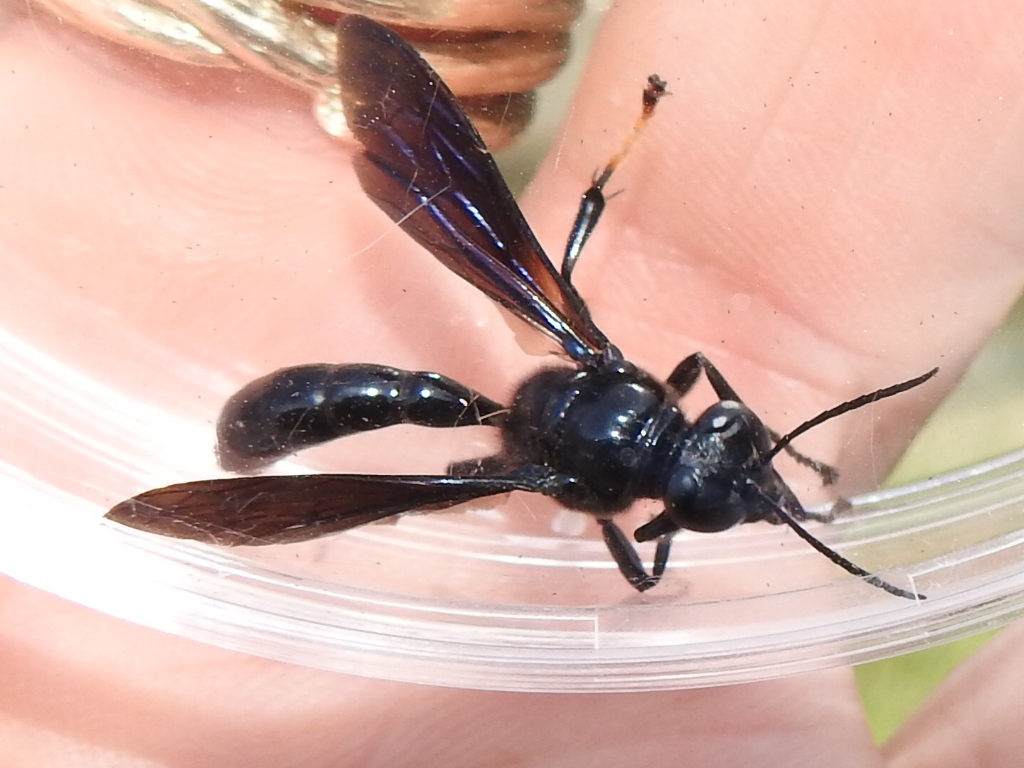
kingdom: Animalia
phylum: Arthropoda
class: Insecta
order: Hymenoptera
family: Crabronidae
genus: Trypoxylon
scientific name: Trypoxylon politum
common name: Organ-pipe mud-dauber wasp
